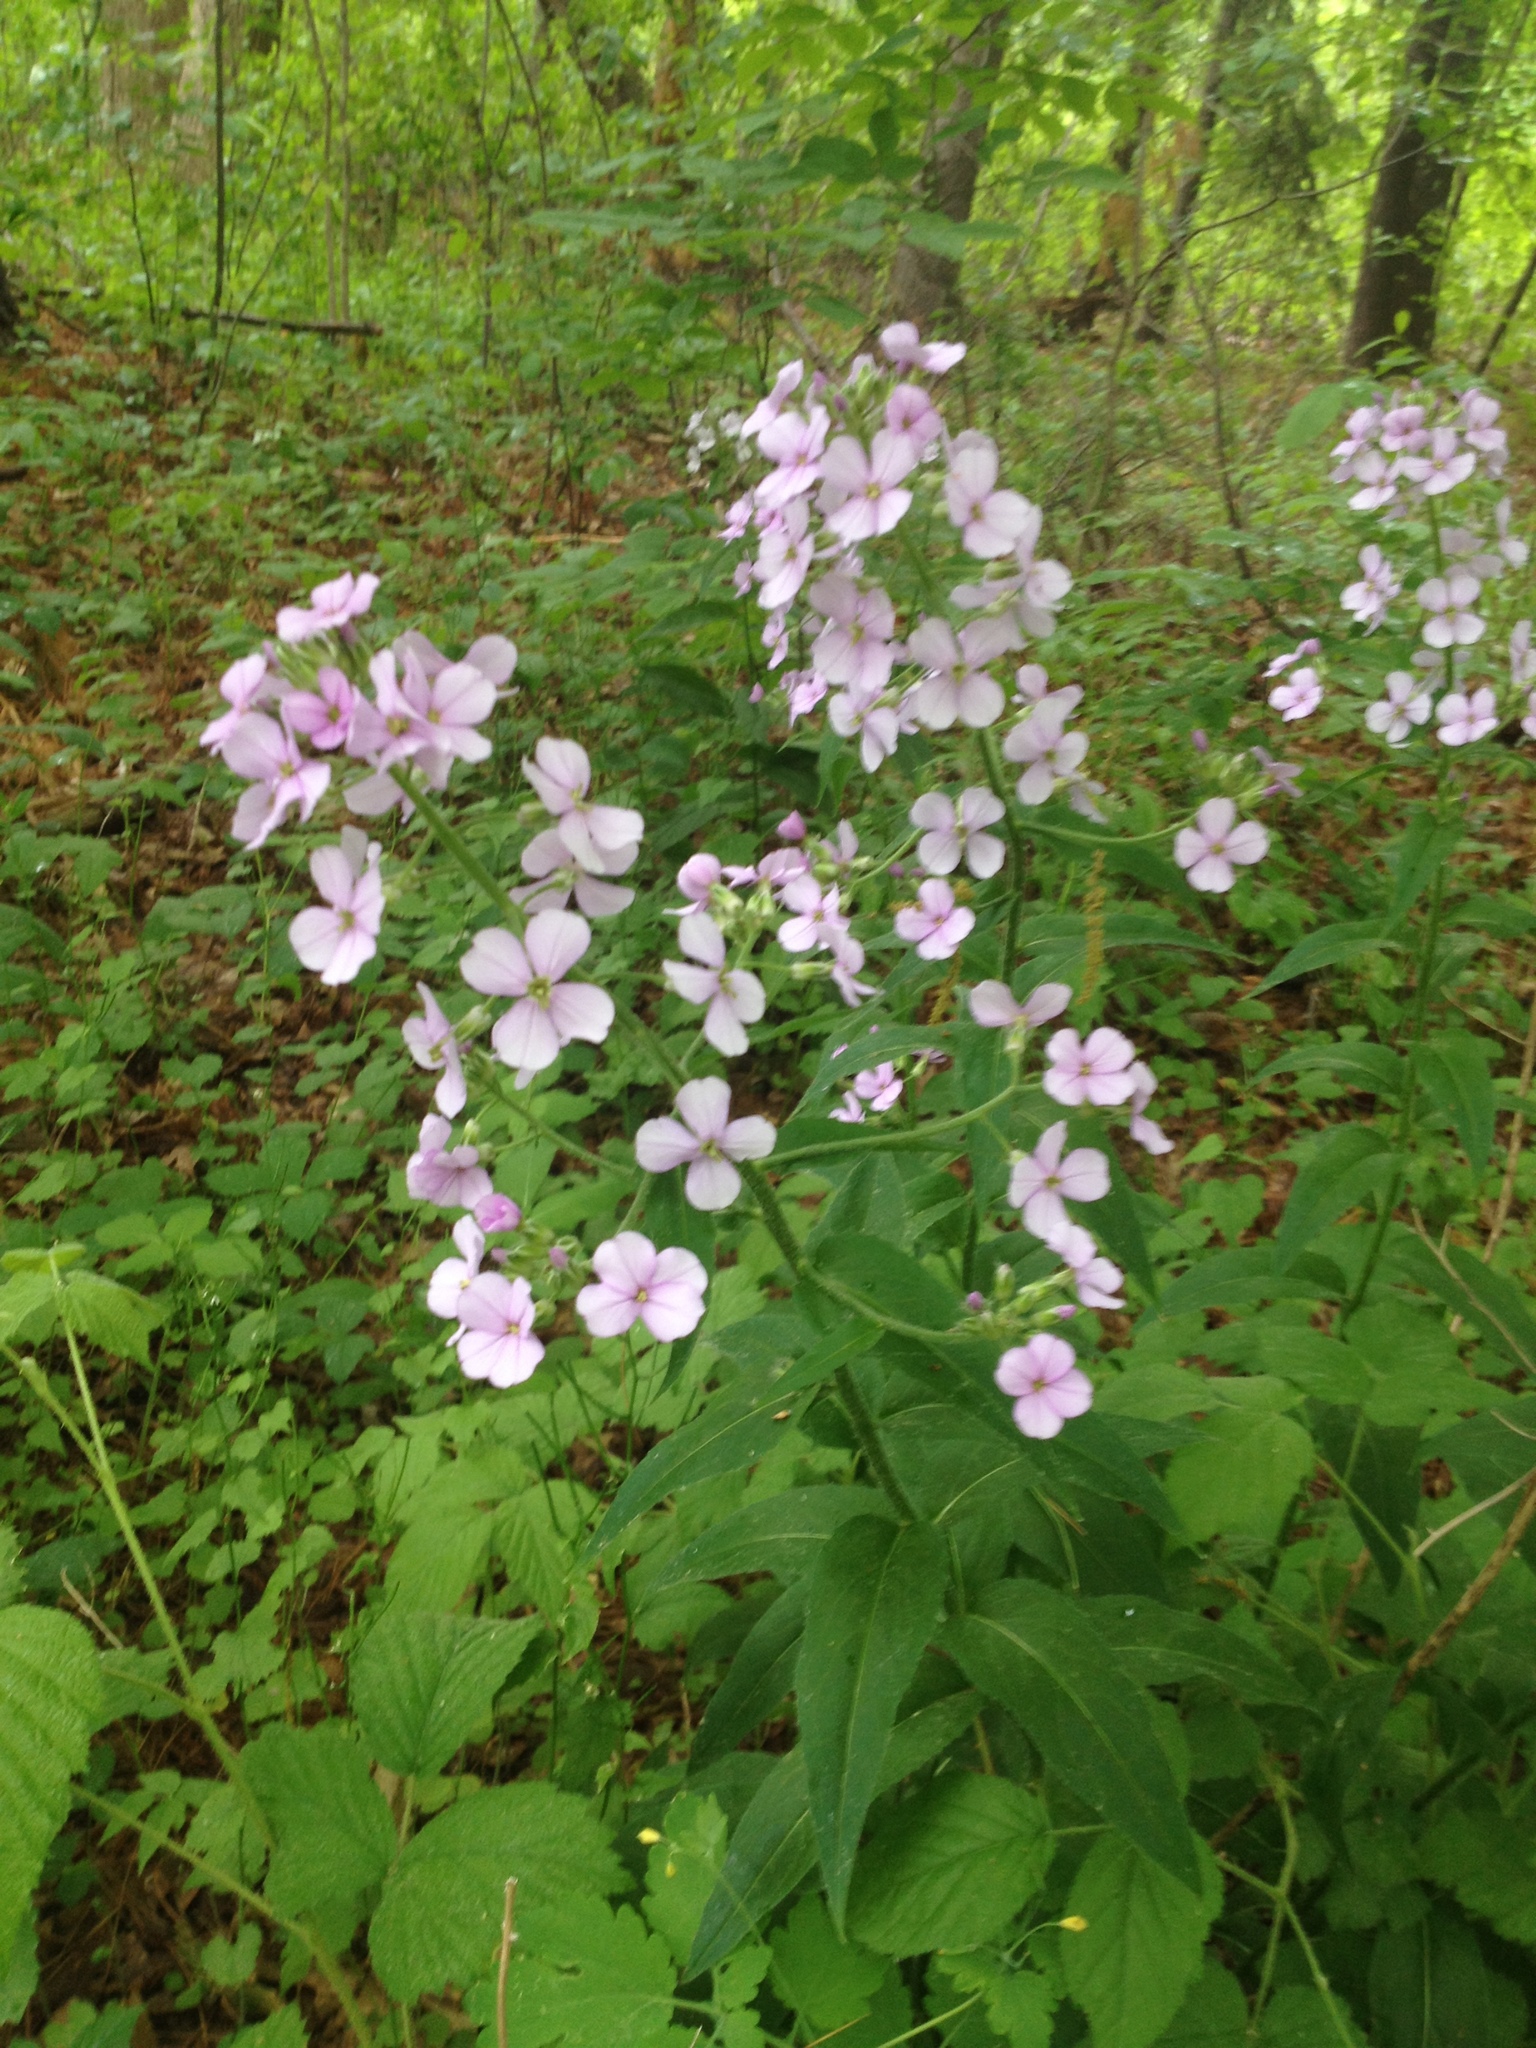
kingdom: Plantae
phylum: Tracheophyta
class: Magnoliopsida
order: Brassicales
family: Brassicaceae
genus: Hesperis
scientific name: Hesperis matronalis
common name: Dame's-violet
